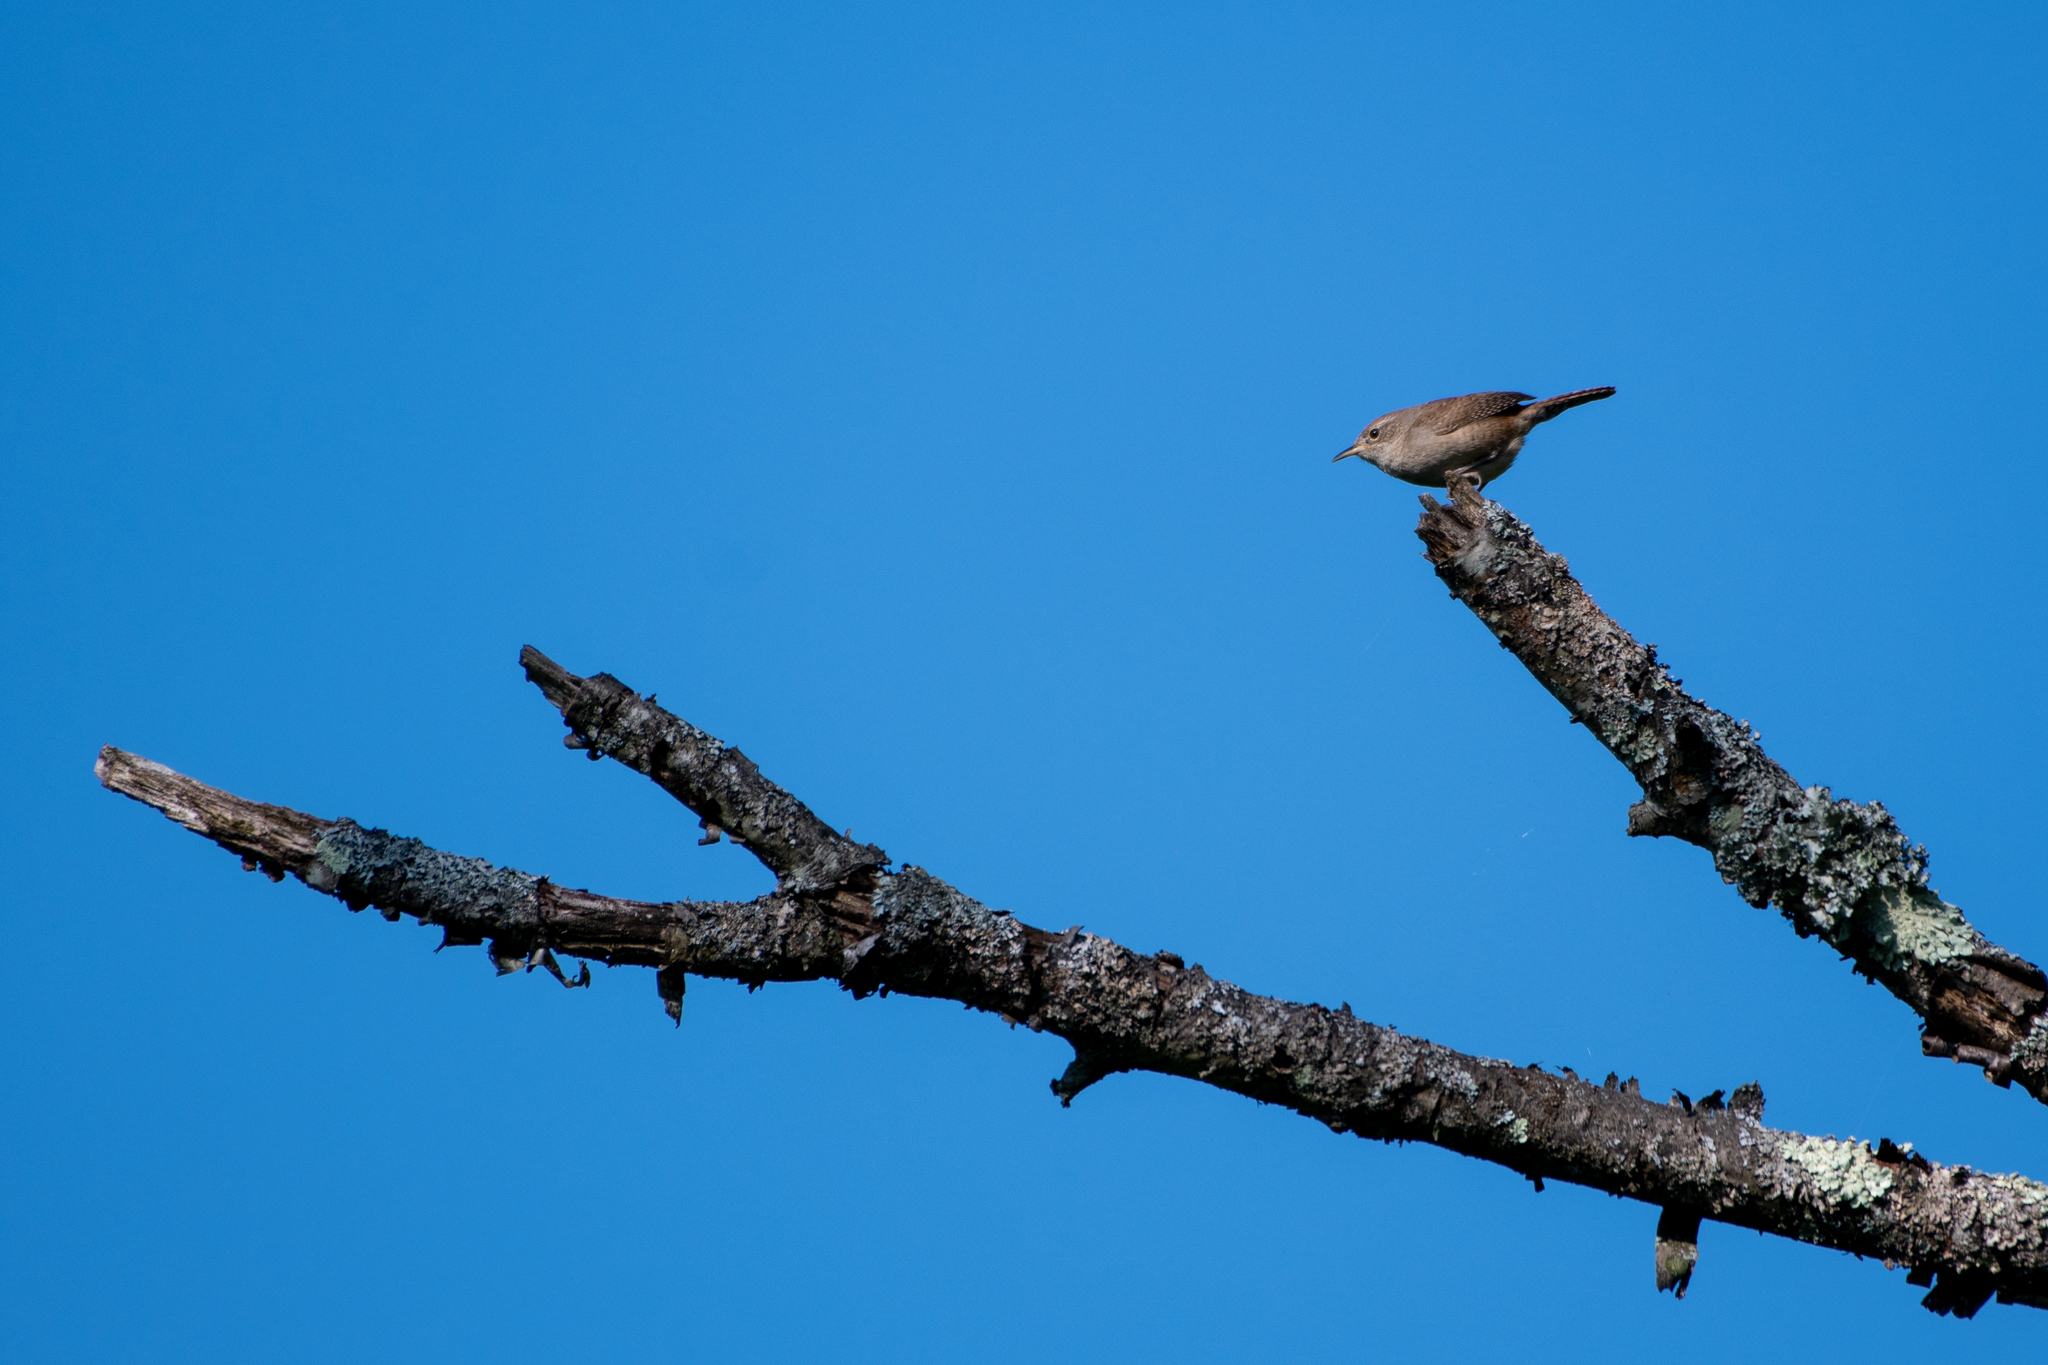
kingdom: Animalia
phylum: Chordata
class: Aves
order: Passeriformes
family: Troglodytidae
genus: Troglodytes
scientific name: Troglodytes aedon
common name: House wren
